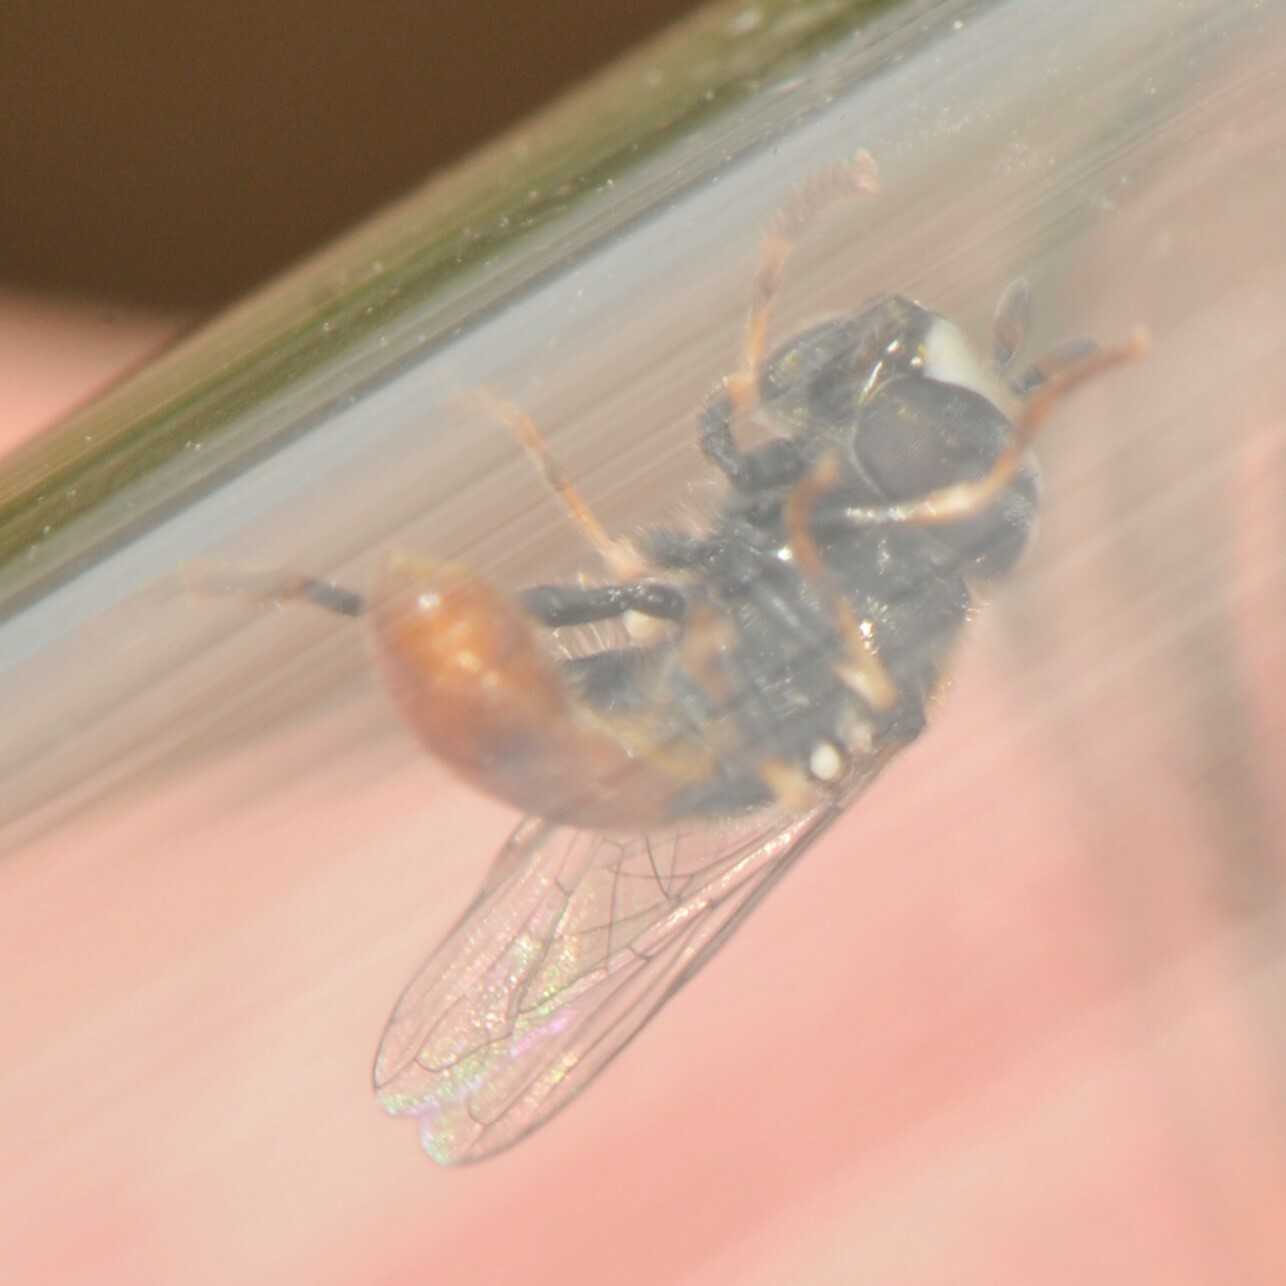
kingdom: Animalia
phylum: Arthropoda
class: Insecta
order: Diptera
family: Syrphidae
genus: Paragus
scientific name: Paragus
